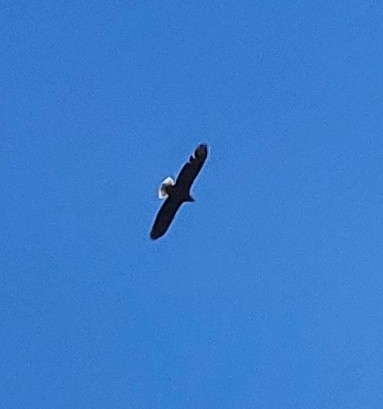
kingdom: Animalia
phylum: Chordata
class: Aves
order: Accipitriformes
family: Accipitridae
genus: Haliaeetus
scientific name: Haliaeetus leucocephalus
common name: Bald eagle
